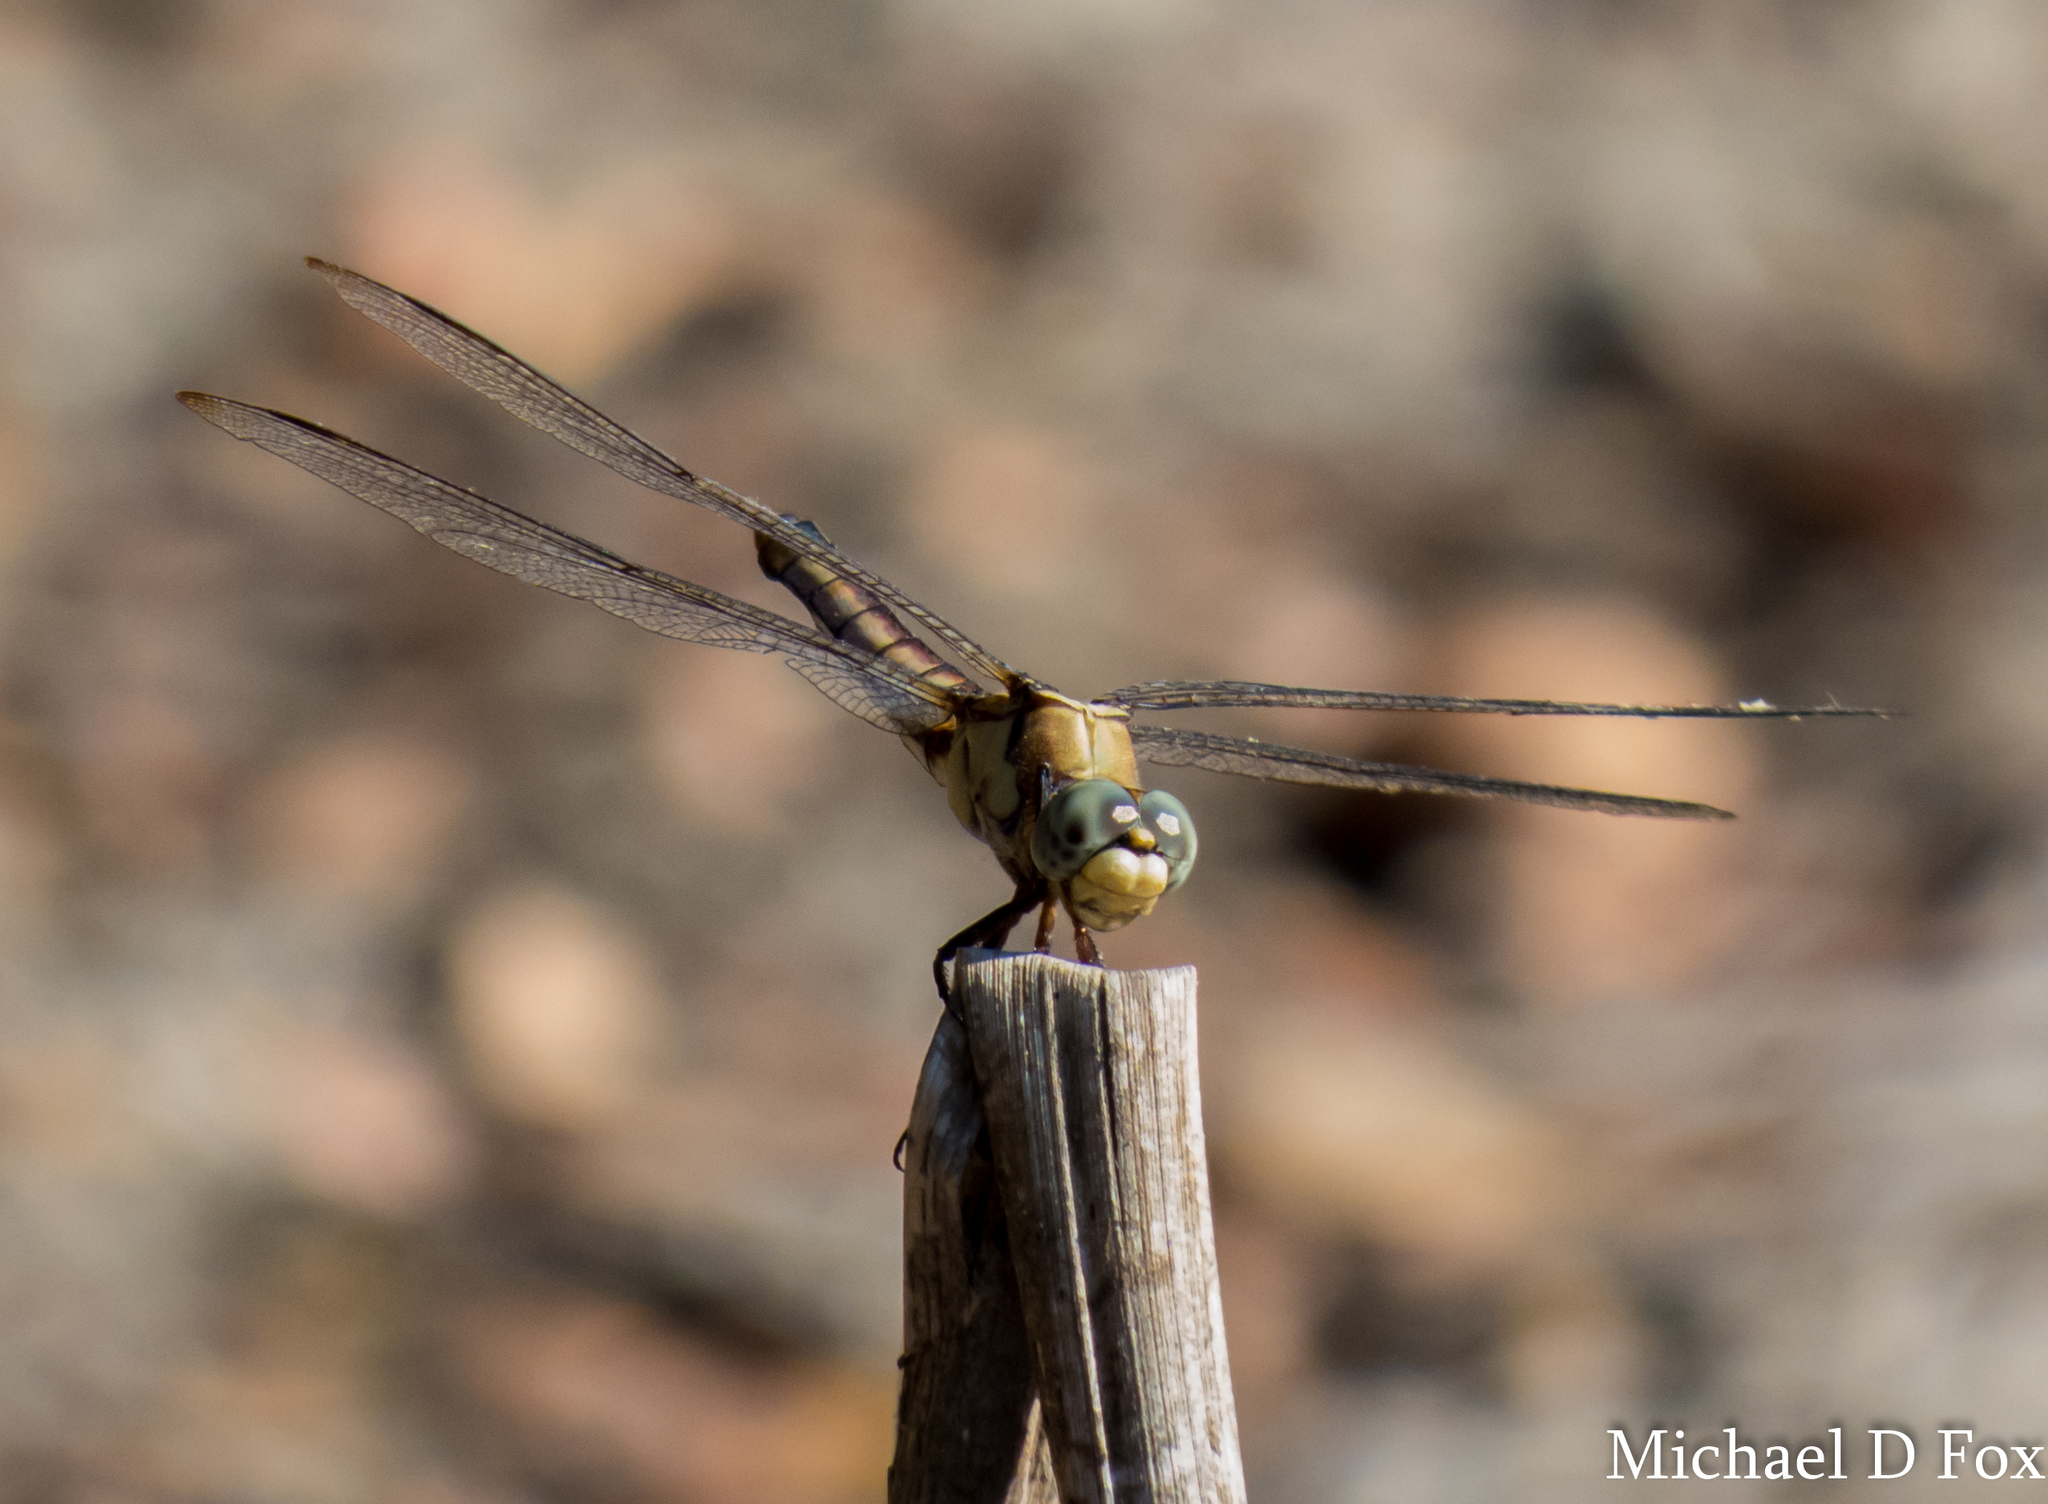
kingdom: Animalia
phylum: Arthropoda
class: Insecta
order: Odonata
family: Libellulidae
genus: Libellula
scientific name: Libellula vibrans
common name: Great blue skimmer
